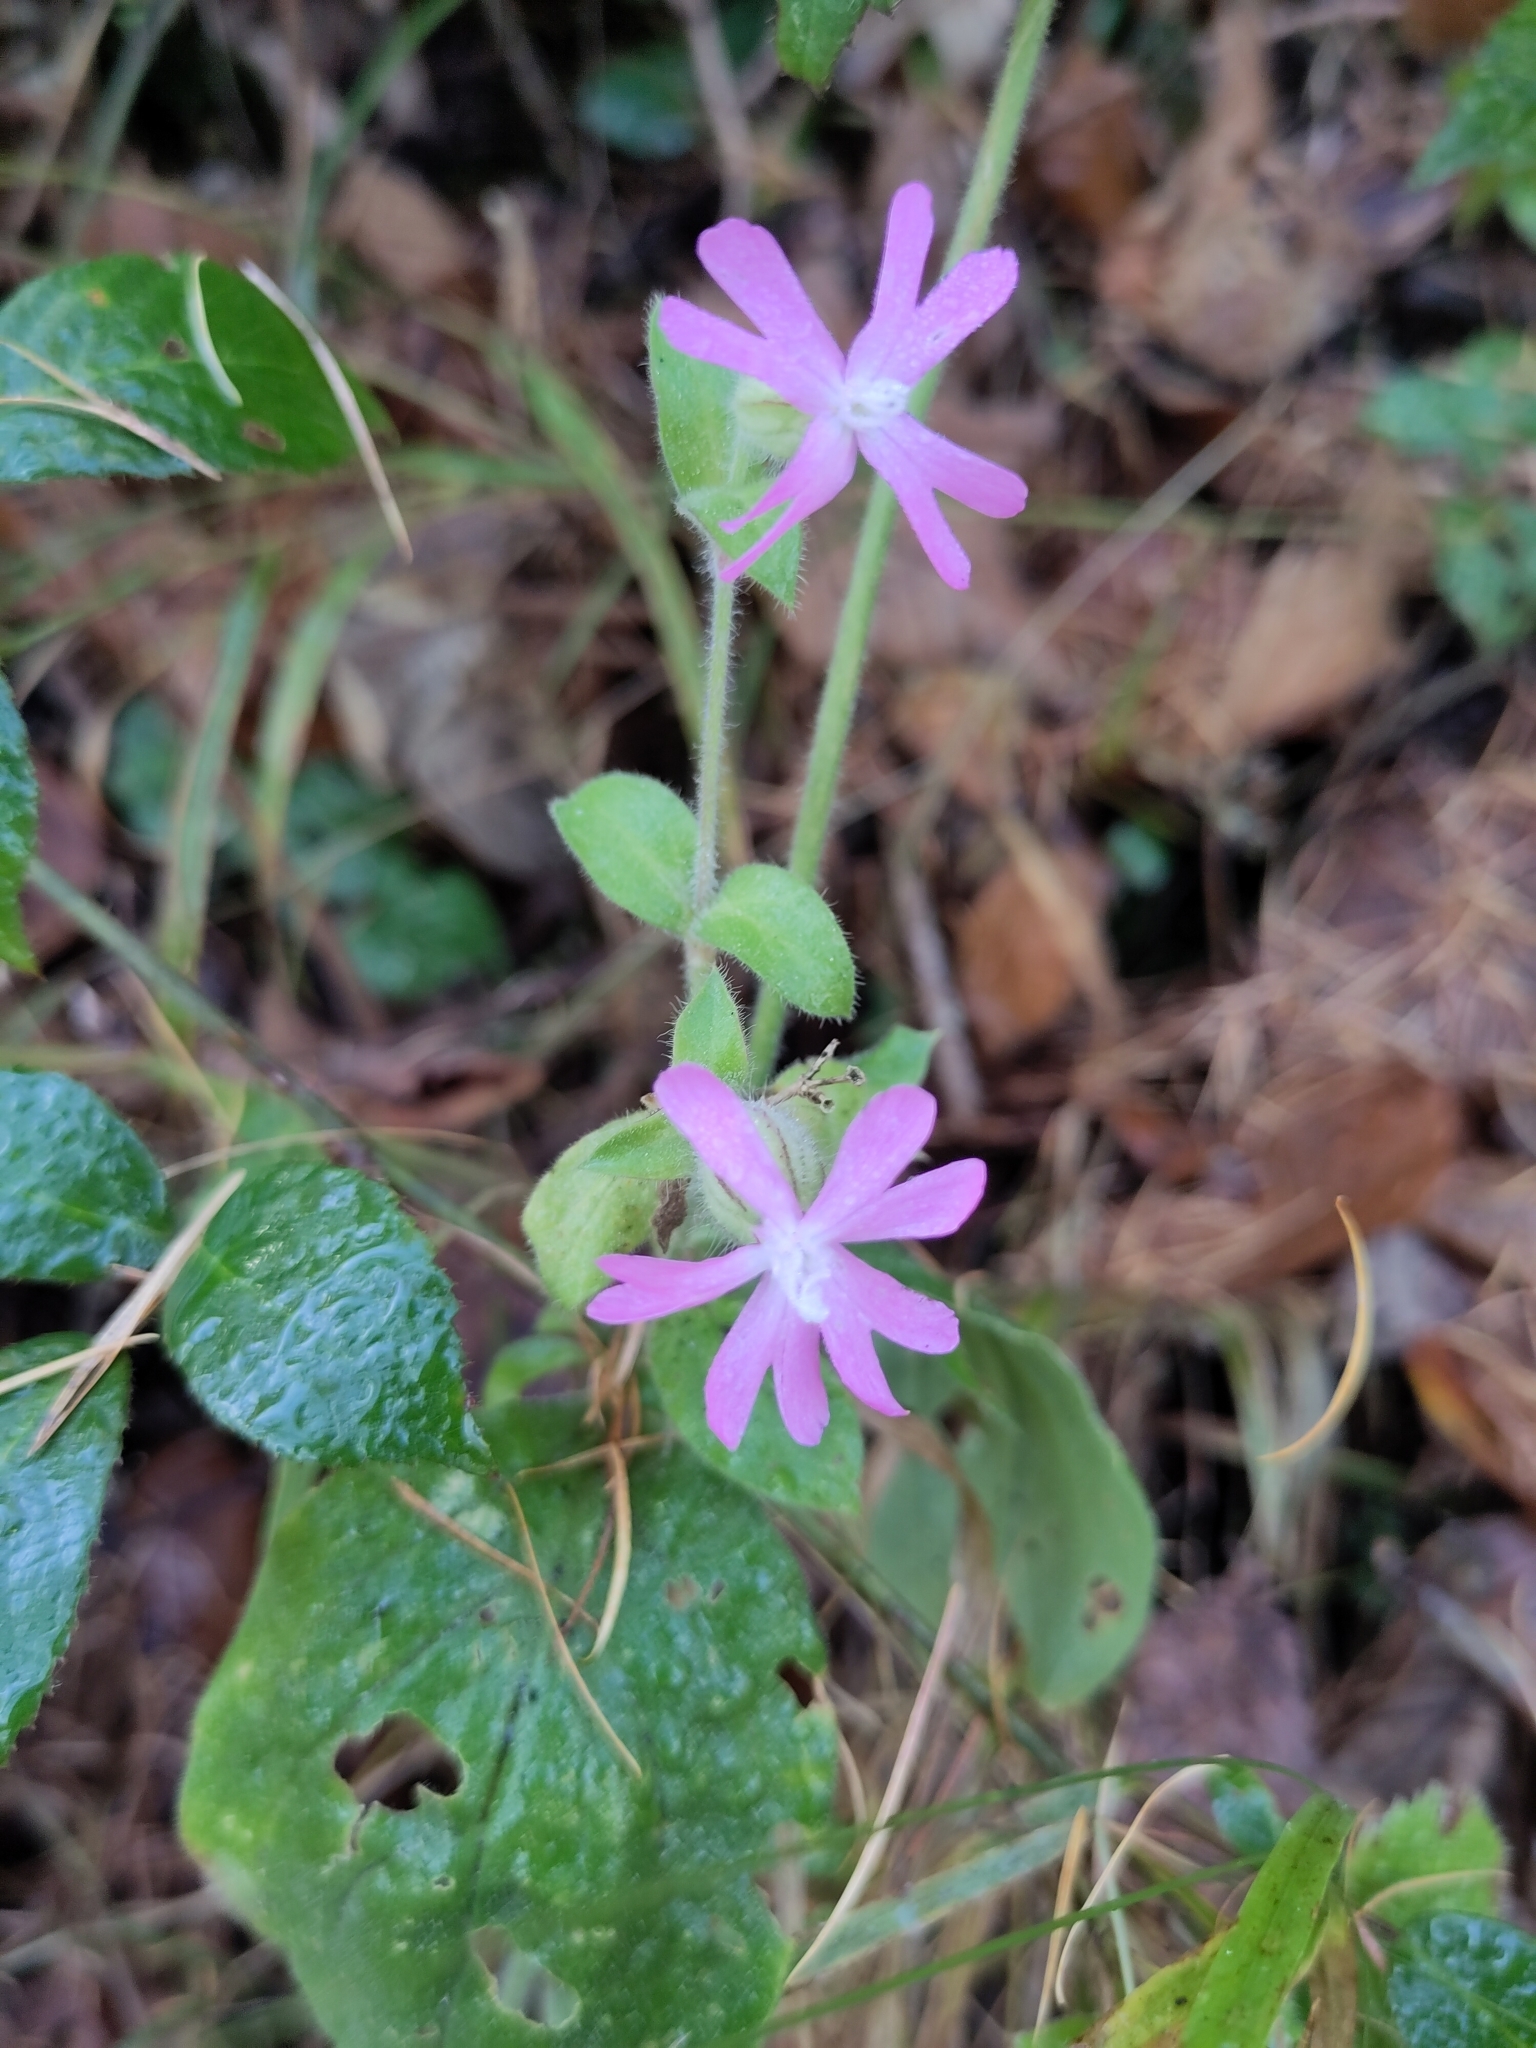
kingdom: Plantae
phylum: Tracheophyta
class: Magnoliopsida
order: Caryophyllales
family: Caryophyllaceae
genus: Silene
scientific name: Silene dioica
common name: Red campion
